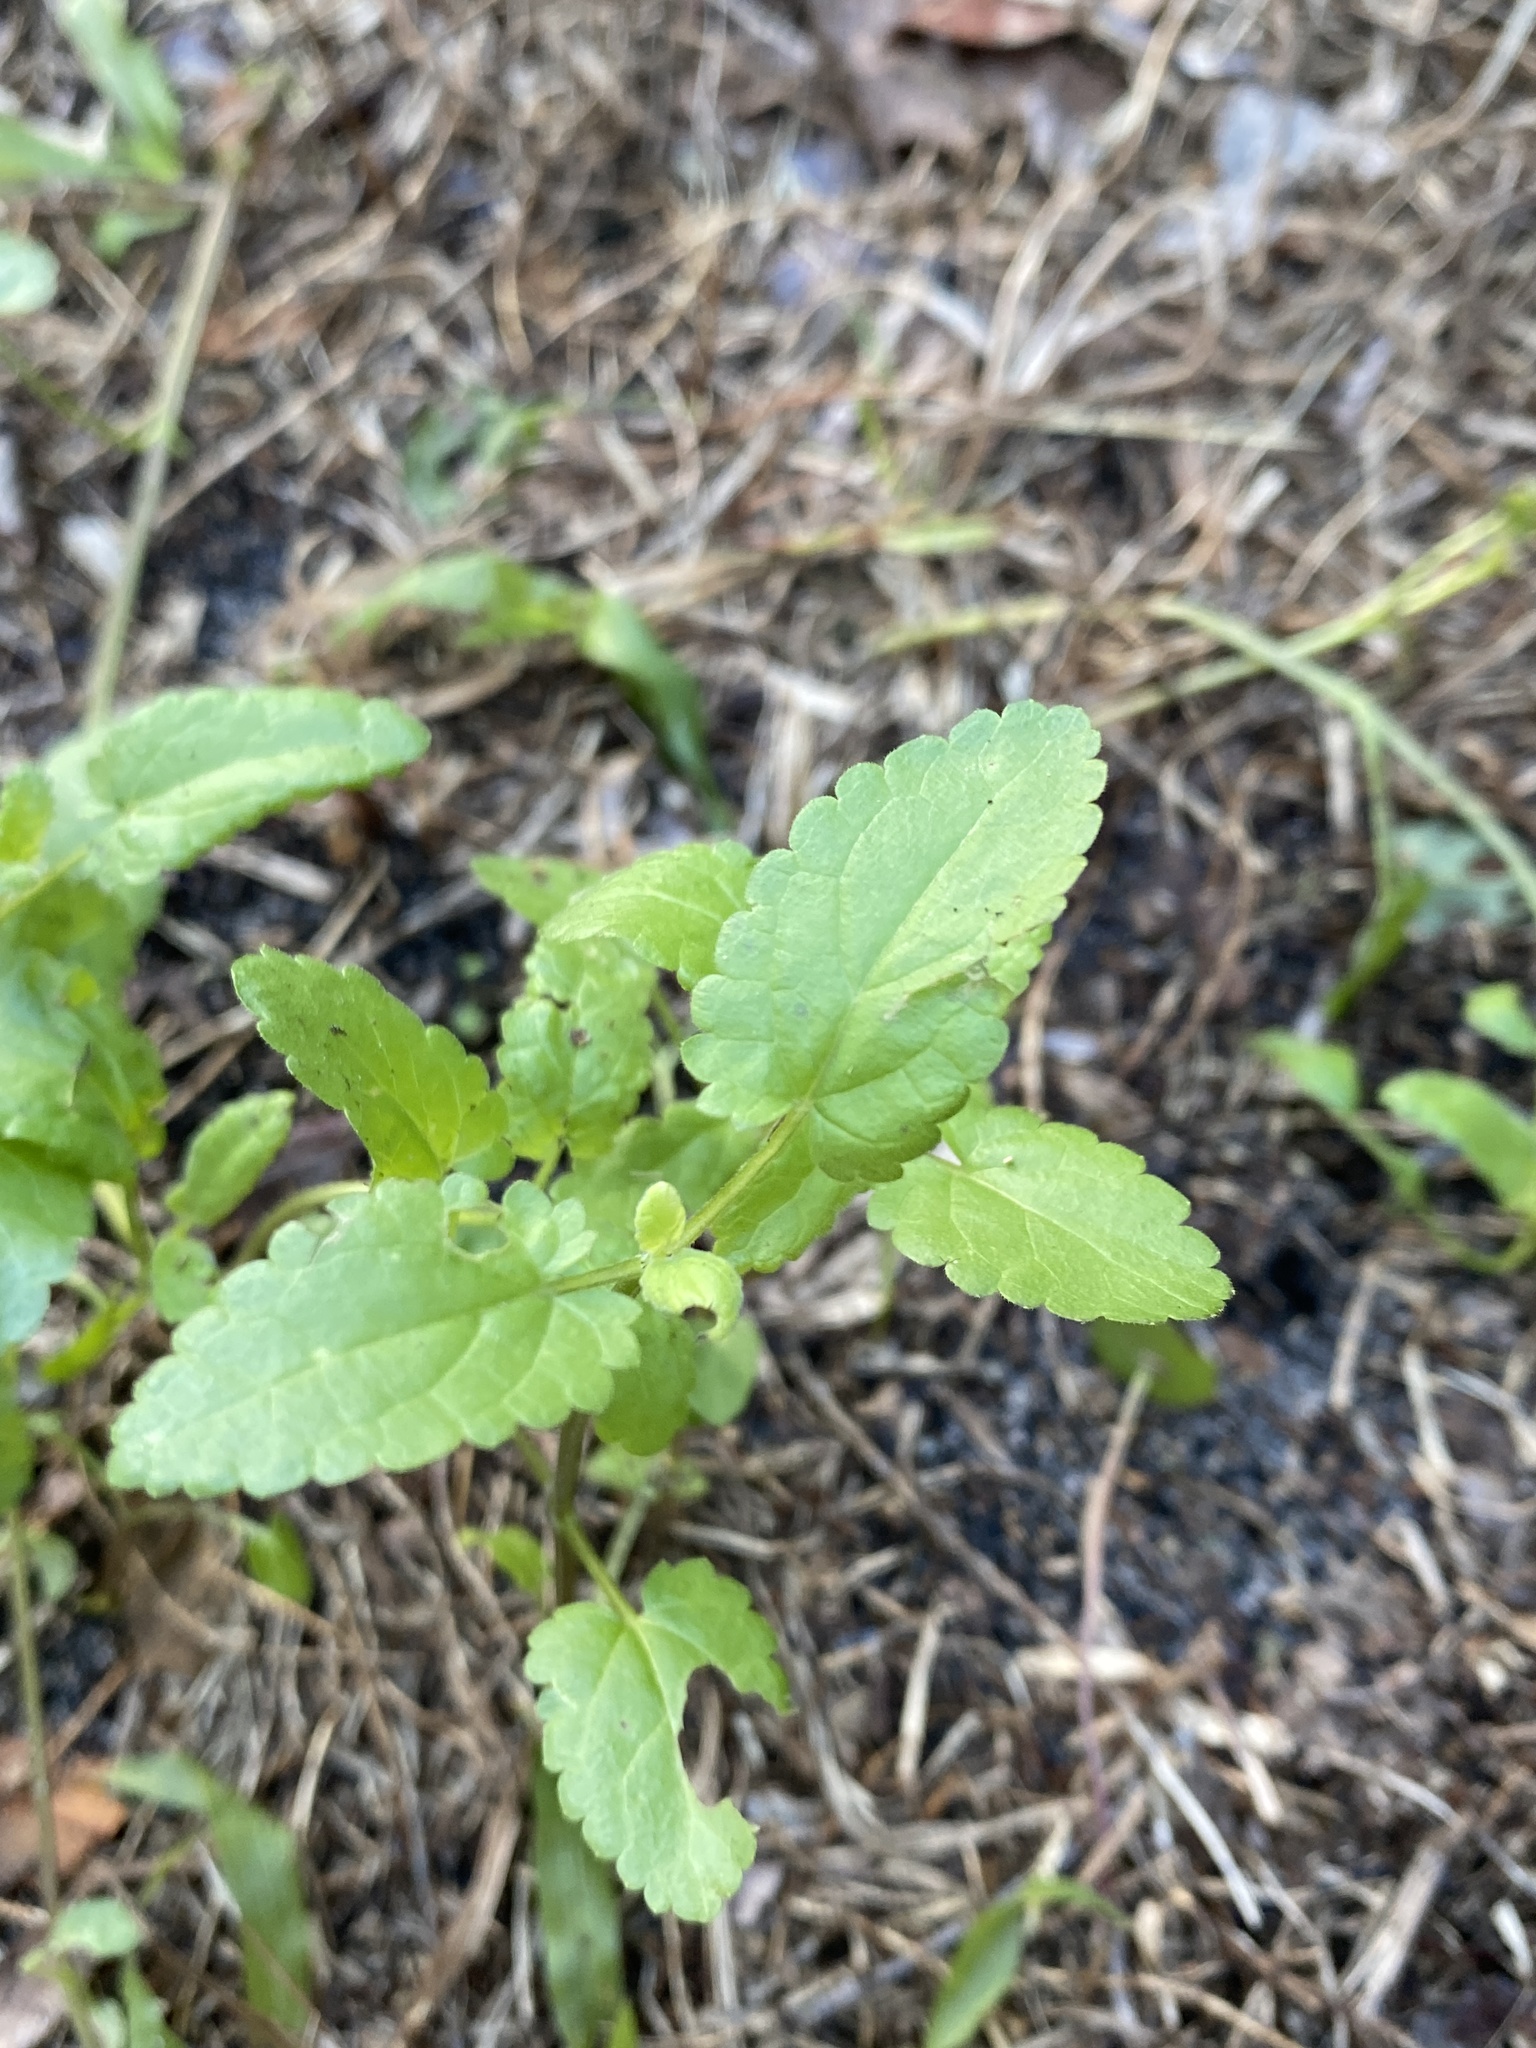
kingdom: Plantae
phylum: Tracheophyta
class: Magnoliopsida
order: Lamiales
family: Lamiaceae
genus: Stachys
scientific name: Stachys floridana
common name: Florida betony
